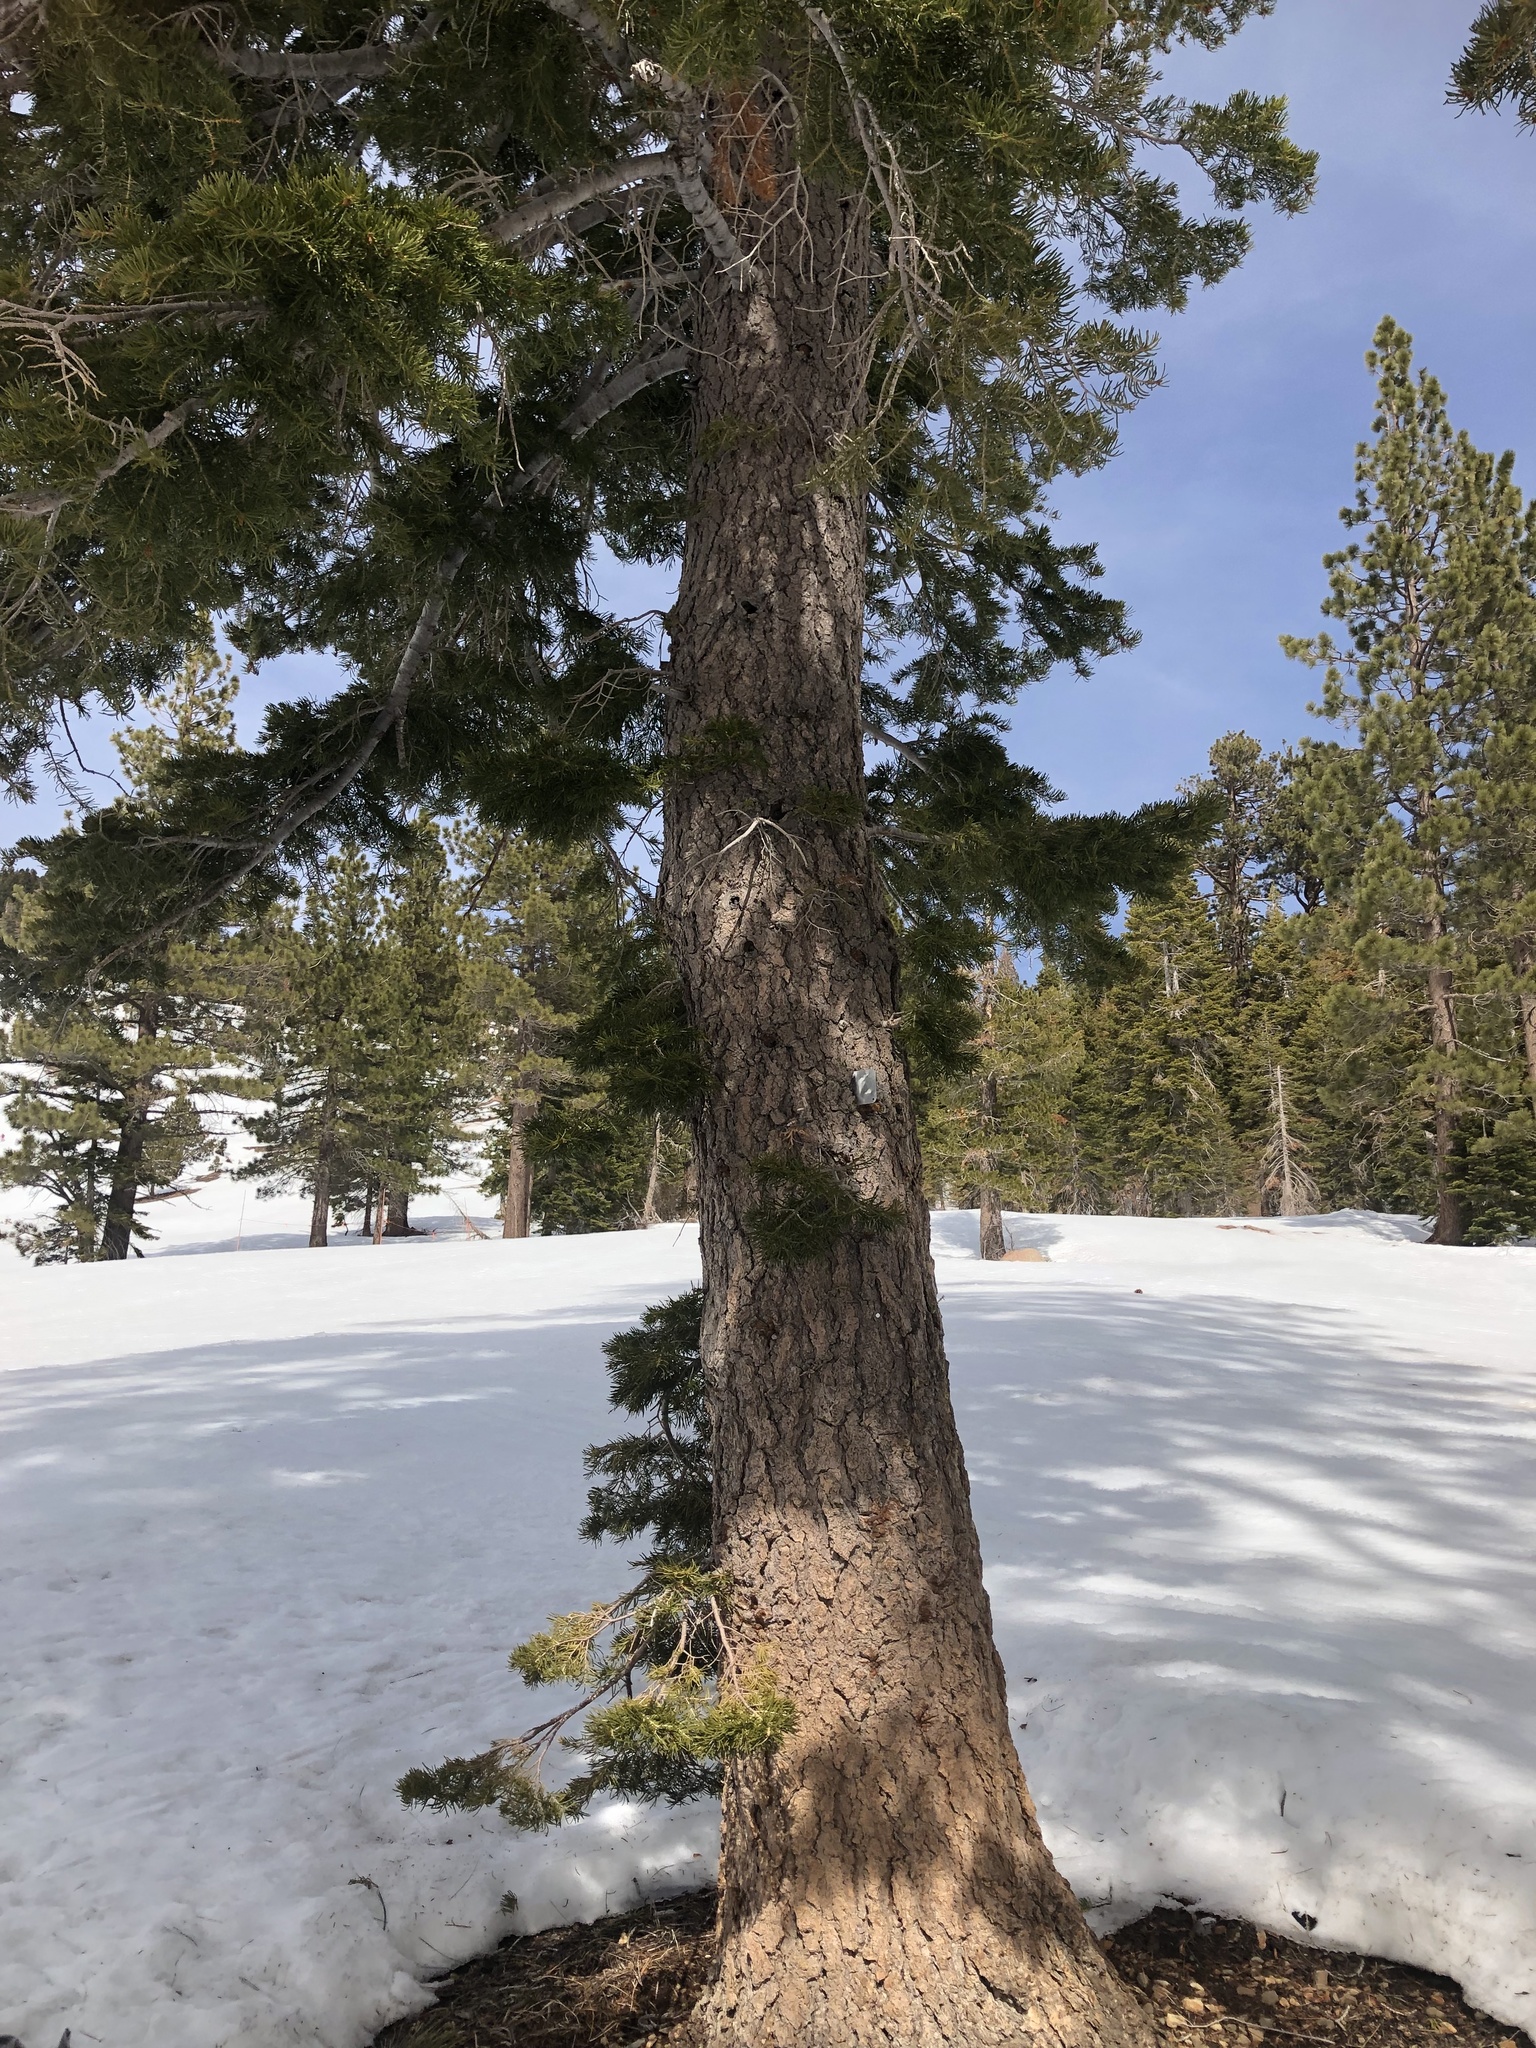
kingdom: Plantae
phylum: Tracheophyta
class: Pinopsida
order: Pinales
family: Pinaceae
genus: Abies
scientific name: Abies concolor
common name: Colorado fir
